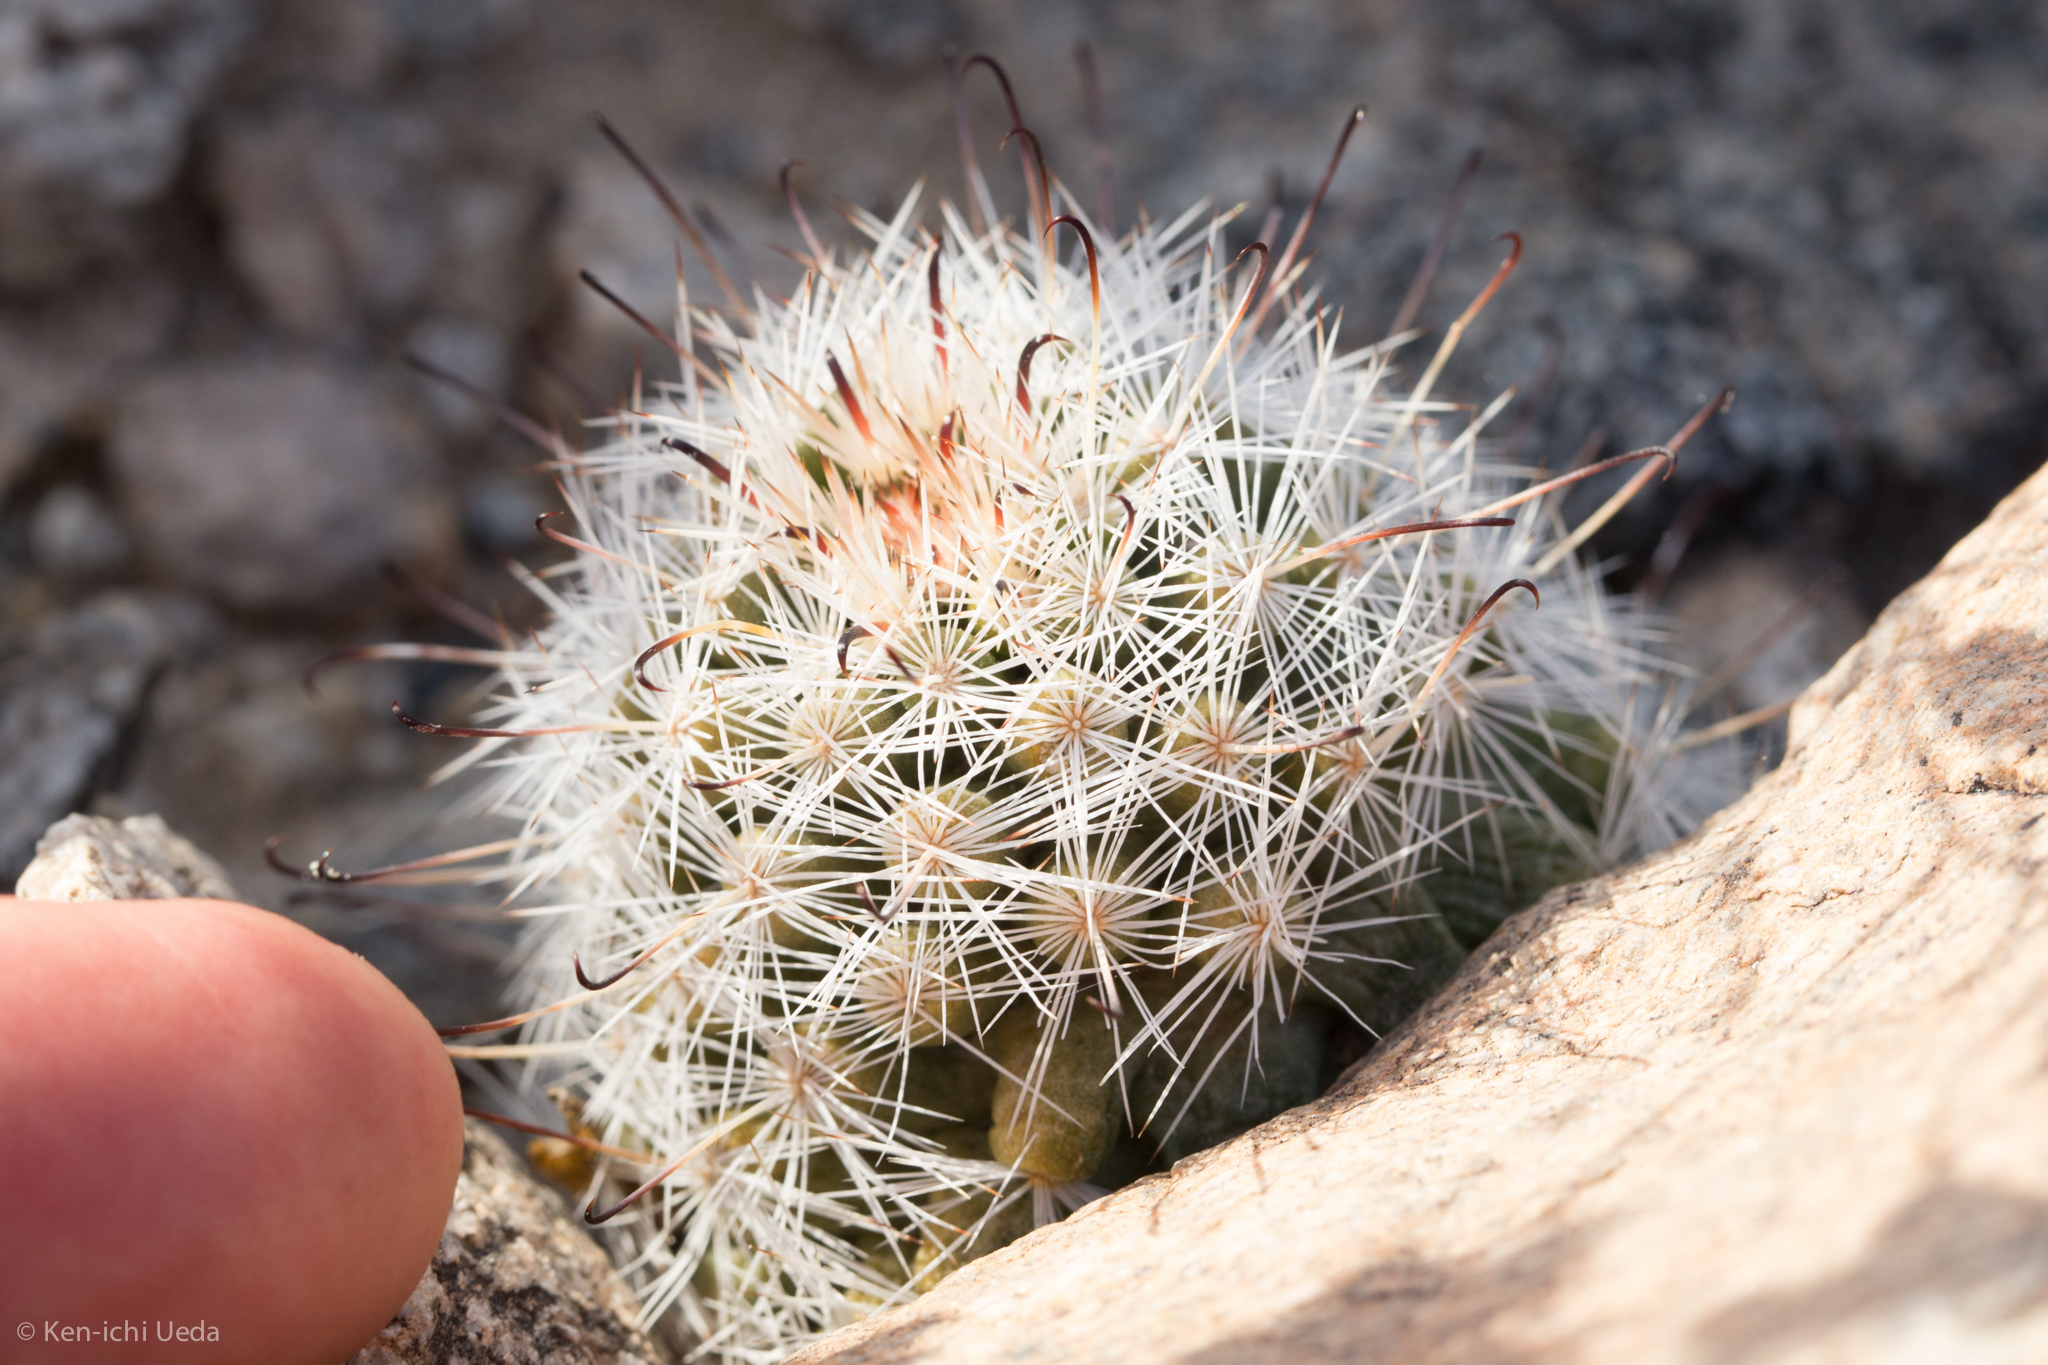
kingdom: Plantae
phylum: Tracheophyta
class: Magnoliopsida
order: Caryophyllales
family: Cactaceae
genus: Cochemiea
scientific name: Cochemiea tetrancistra
